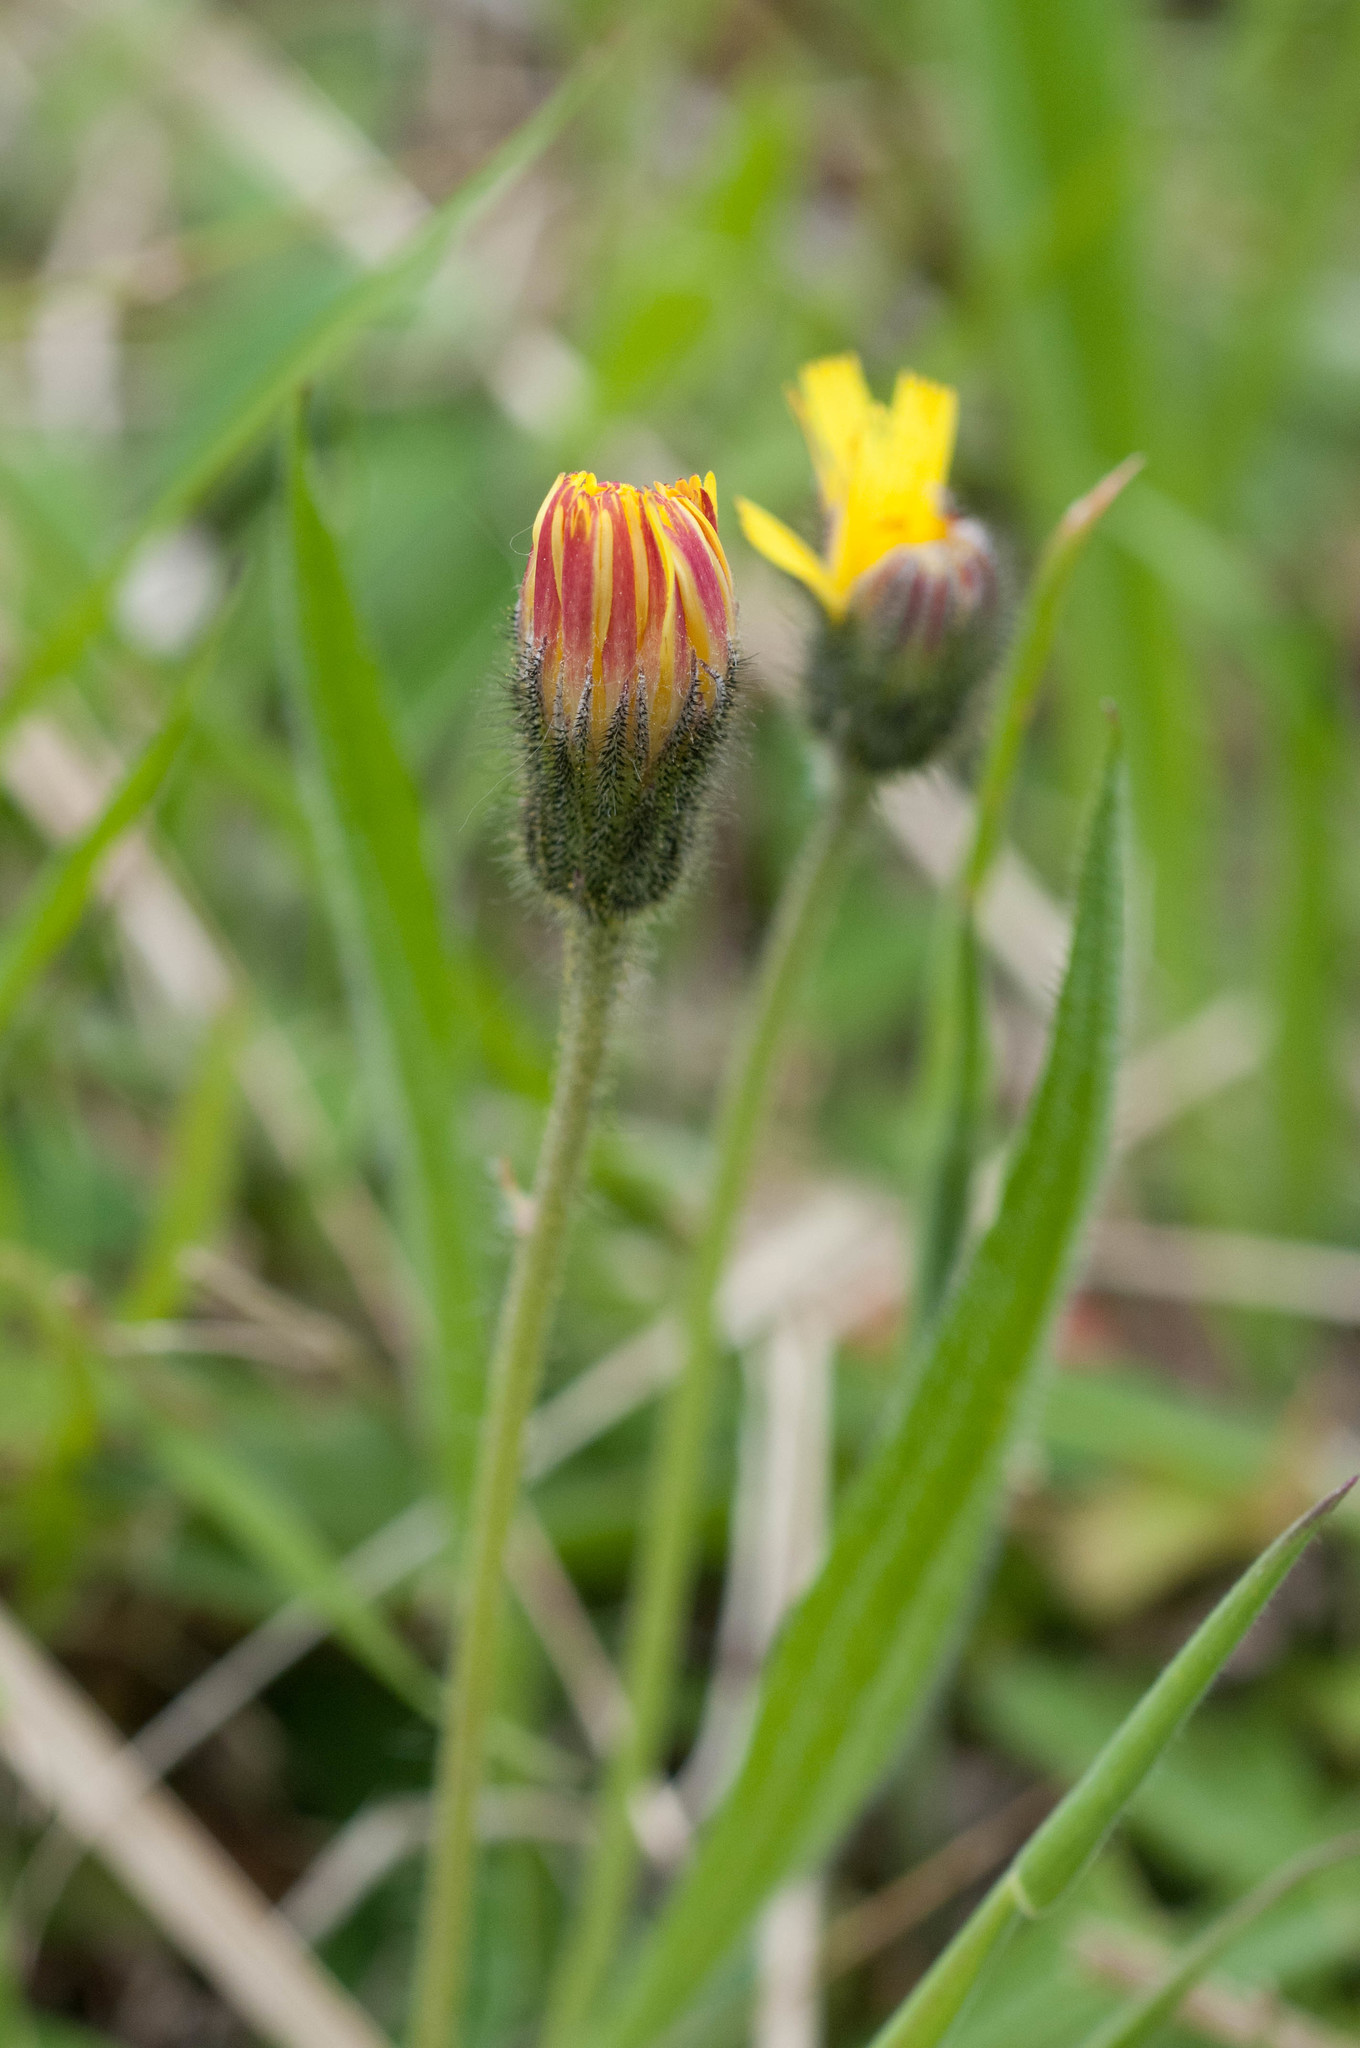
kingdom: Plantae
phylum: Tracheophyta
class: Magnoliopsida
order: Asterales
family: Asteraceae
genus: Pilosella
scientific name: Pilosella officinarum
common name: Mouse-ear hawkweed
